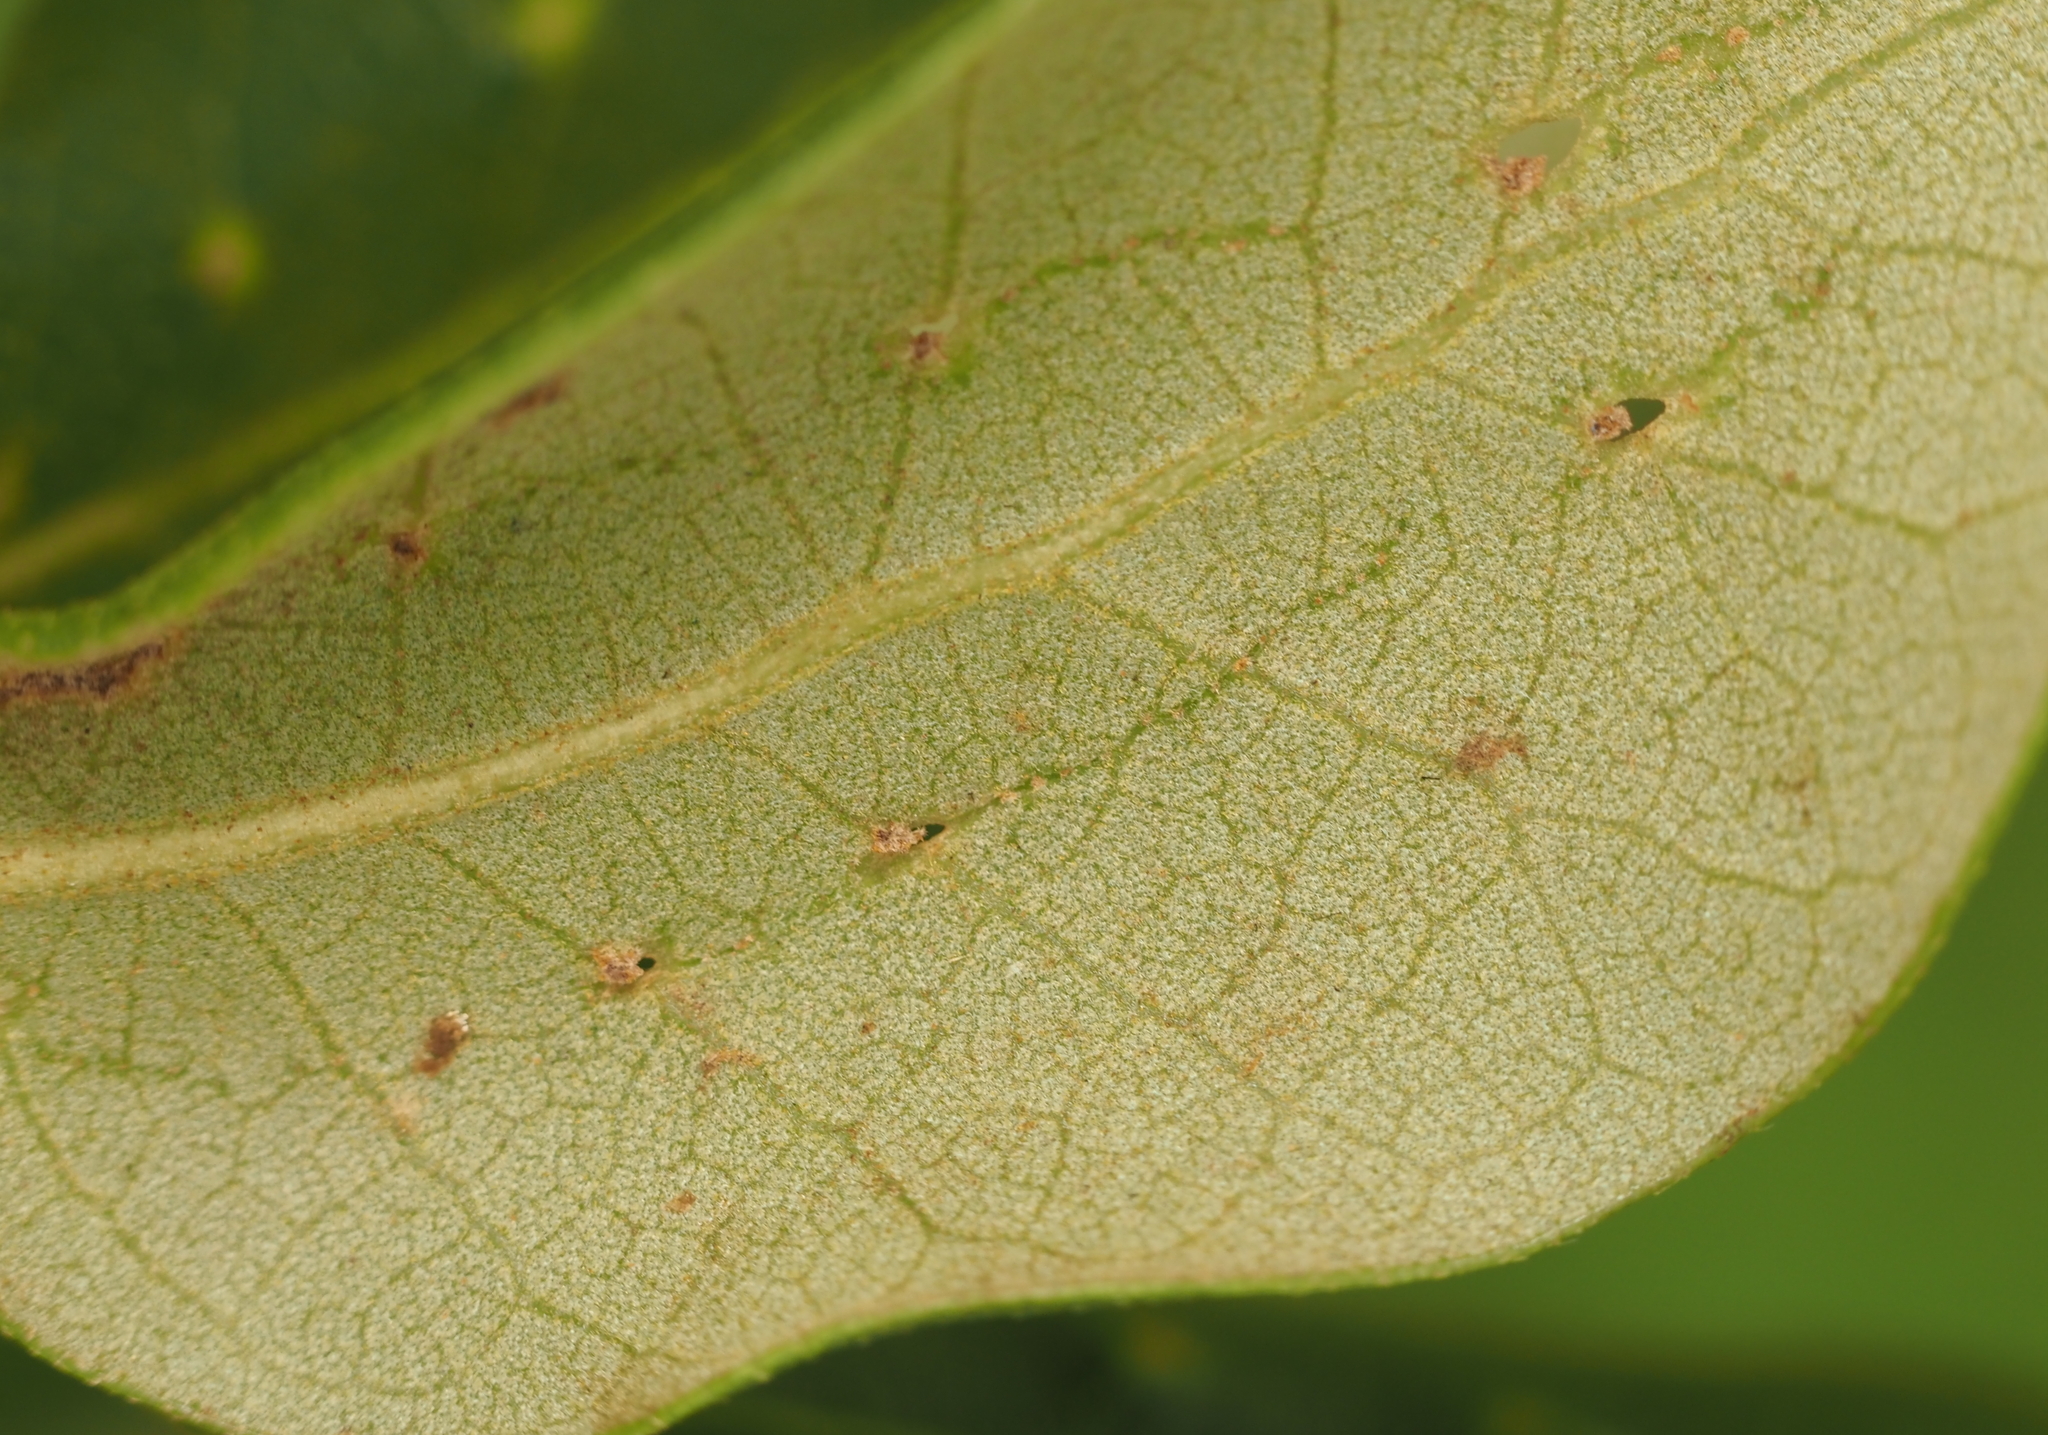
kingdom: Animalia
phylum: Arthropoda
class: Insecta
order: Hymenoptera
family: Cynipidae
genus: Belonocnema
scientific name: Belonocnema kinseyi
